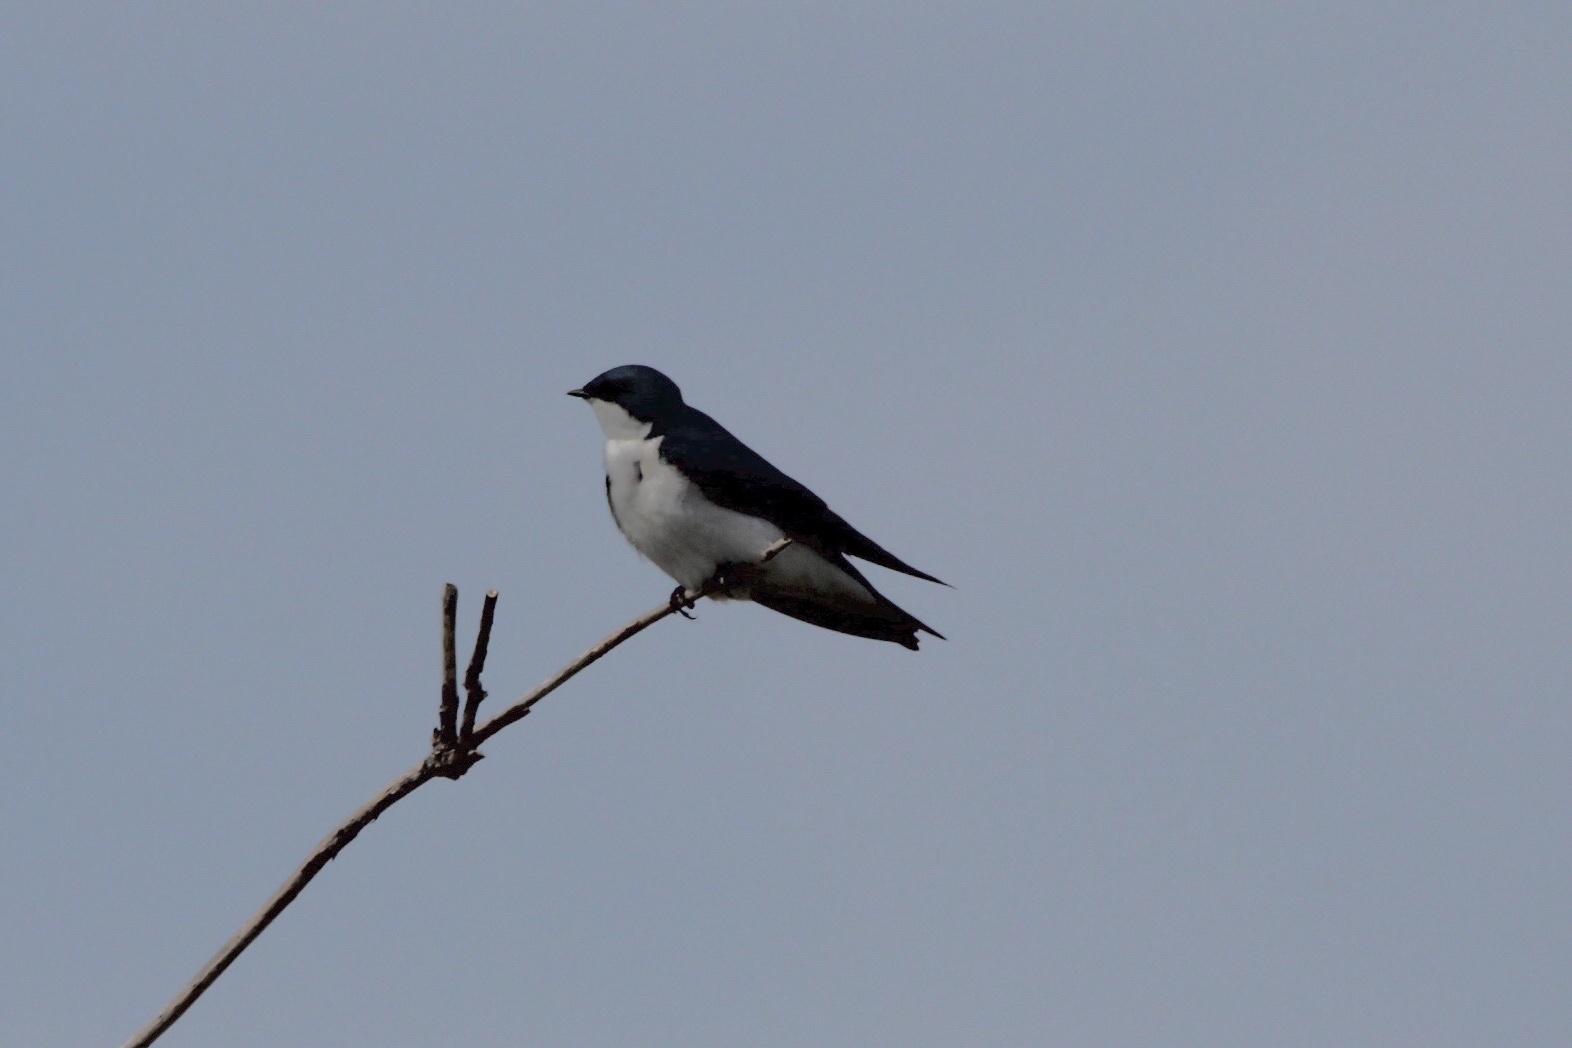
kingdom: Animalia
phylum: Chordata
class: Aves
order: Passeriformes
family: Hirundinidae
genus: Tachycineta
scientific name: Tachycineta bicolor
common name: Tree swallow
